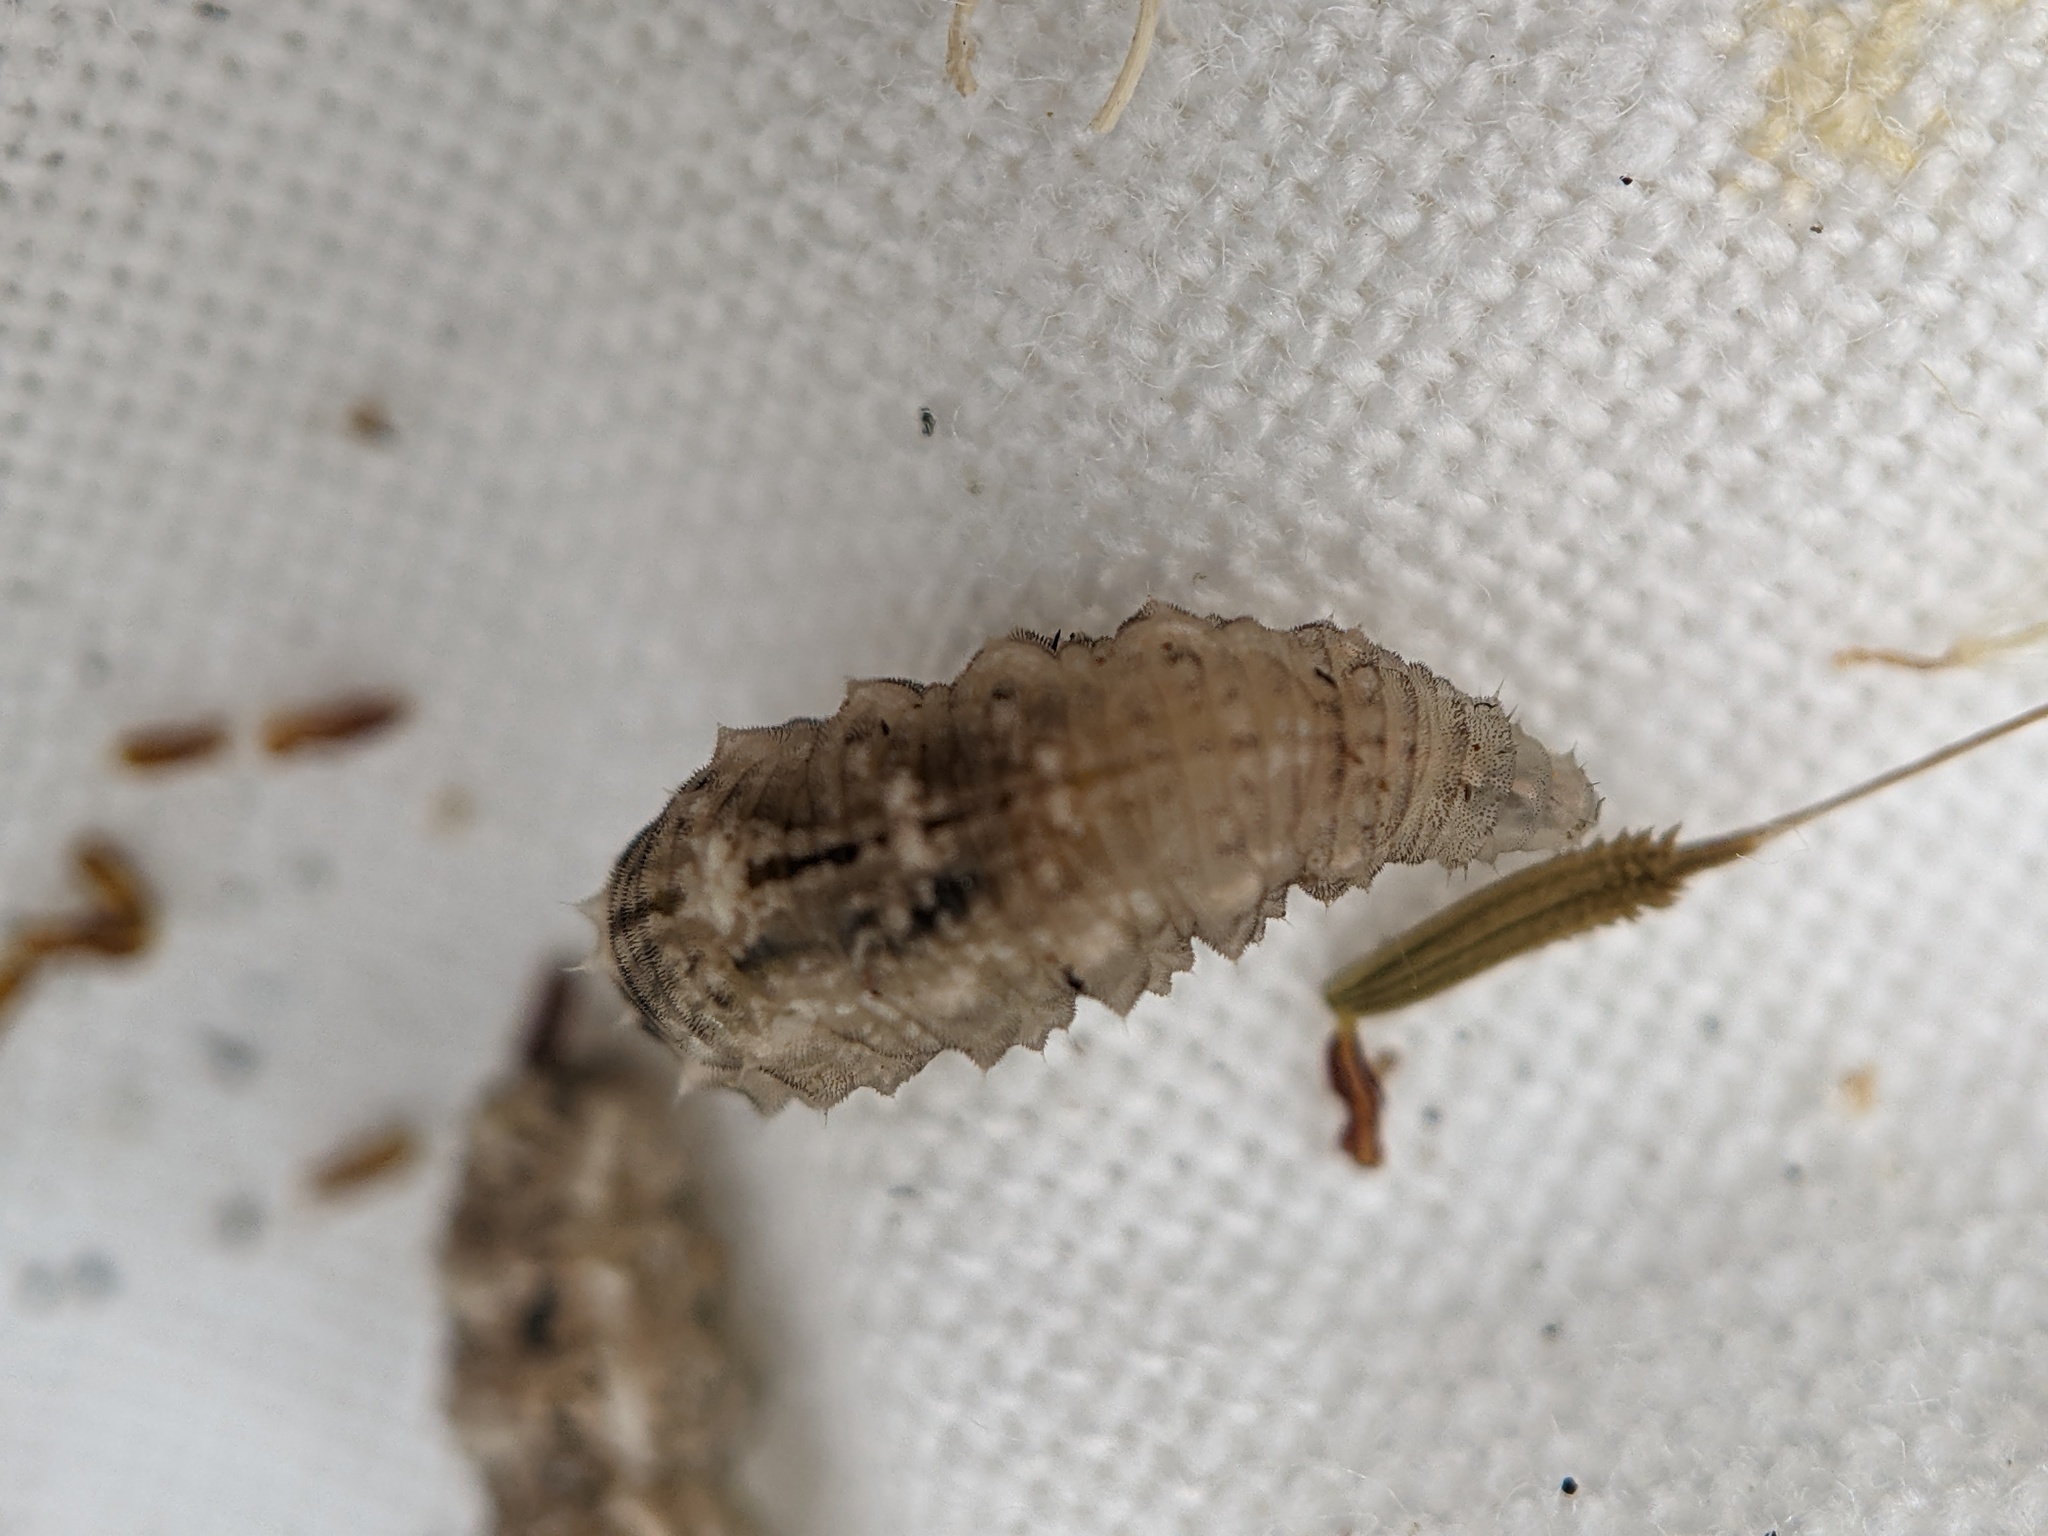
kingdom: Animalia
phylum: Arthropoda
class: Insecta
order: Diptera
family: Syrphidae
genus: Eupeodes
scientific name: Eupeodes
